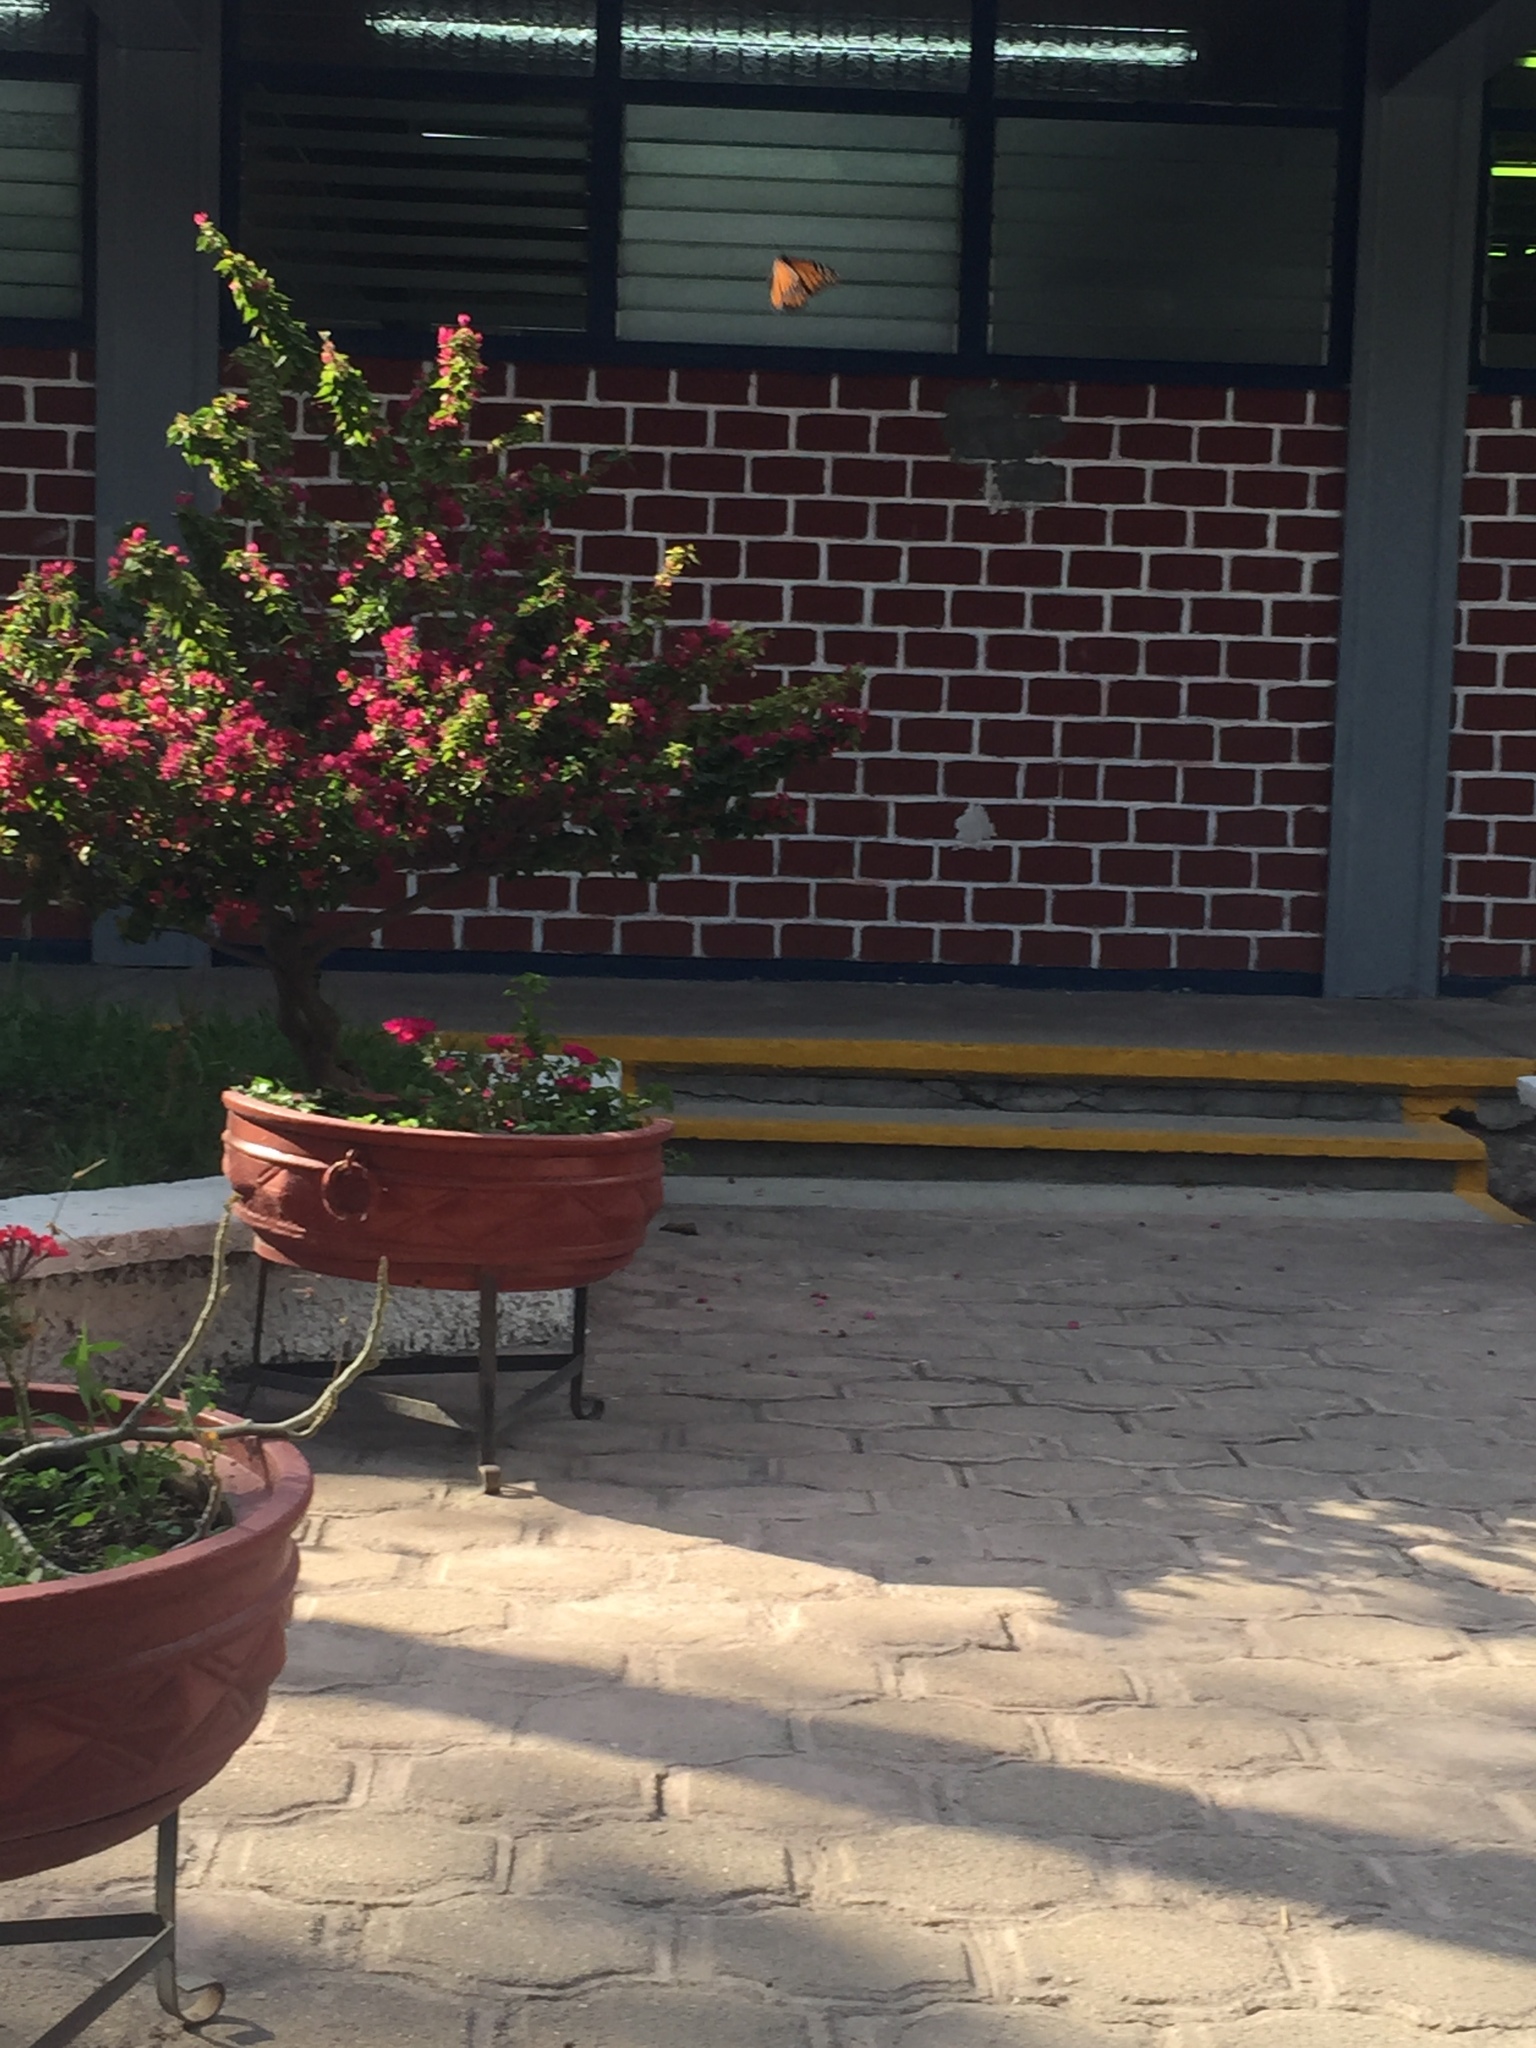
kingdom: Animalia
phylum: Arthropoda
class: Insecta
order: Lepidoptera
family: Nymphalidae
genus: Danaus
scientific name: Danaus plexippus
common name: Monarch
